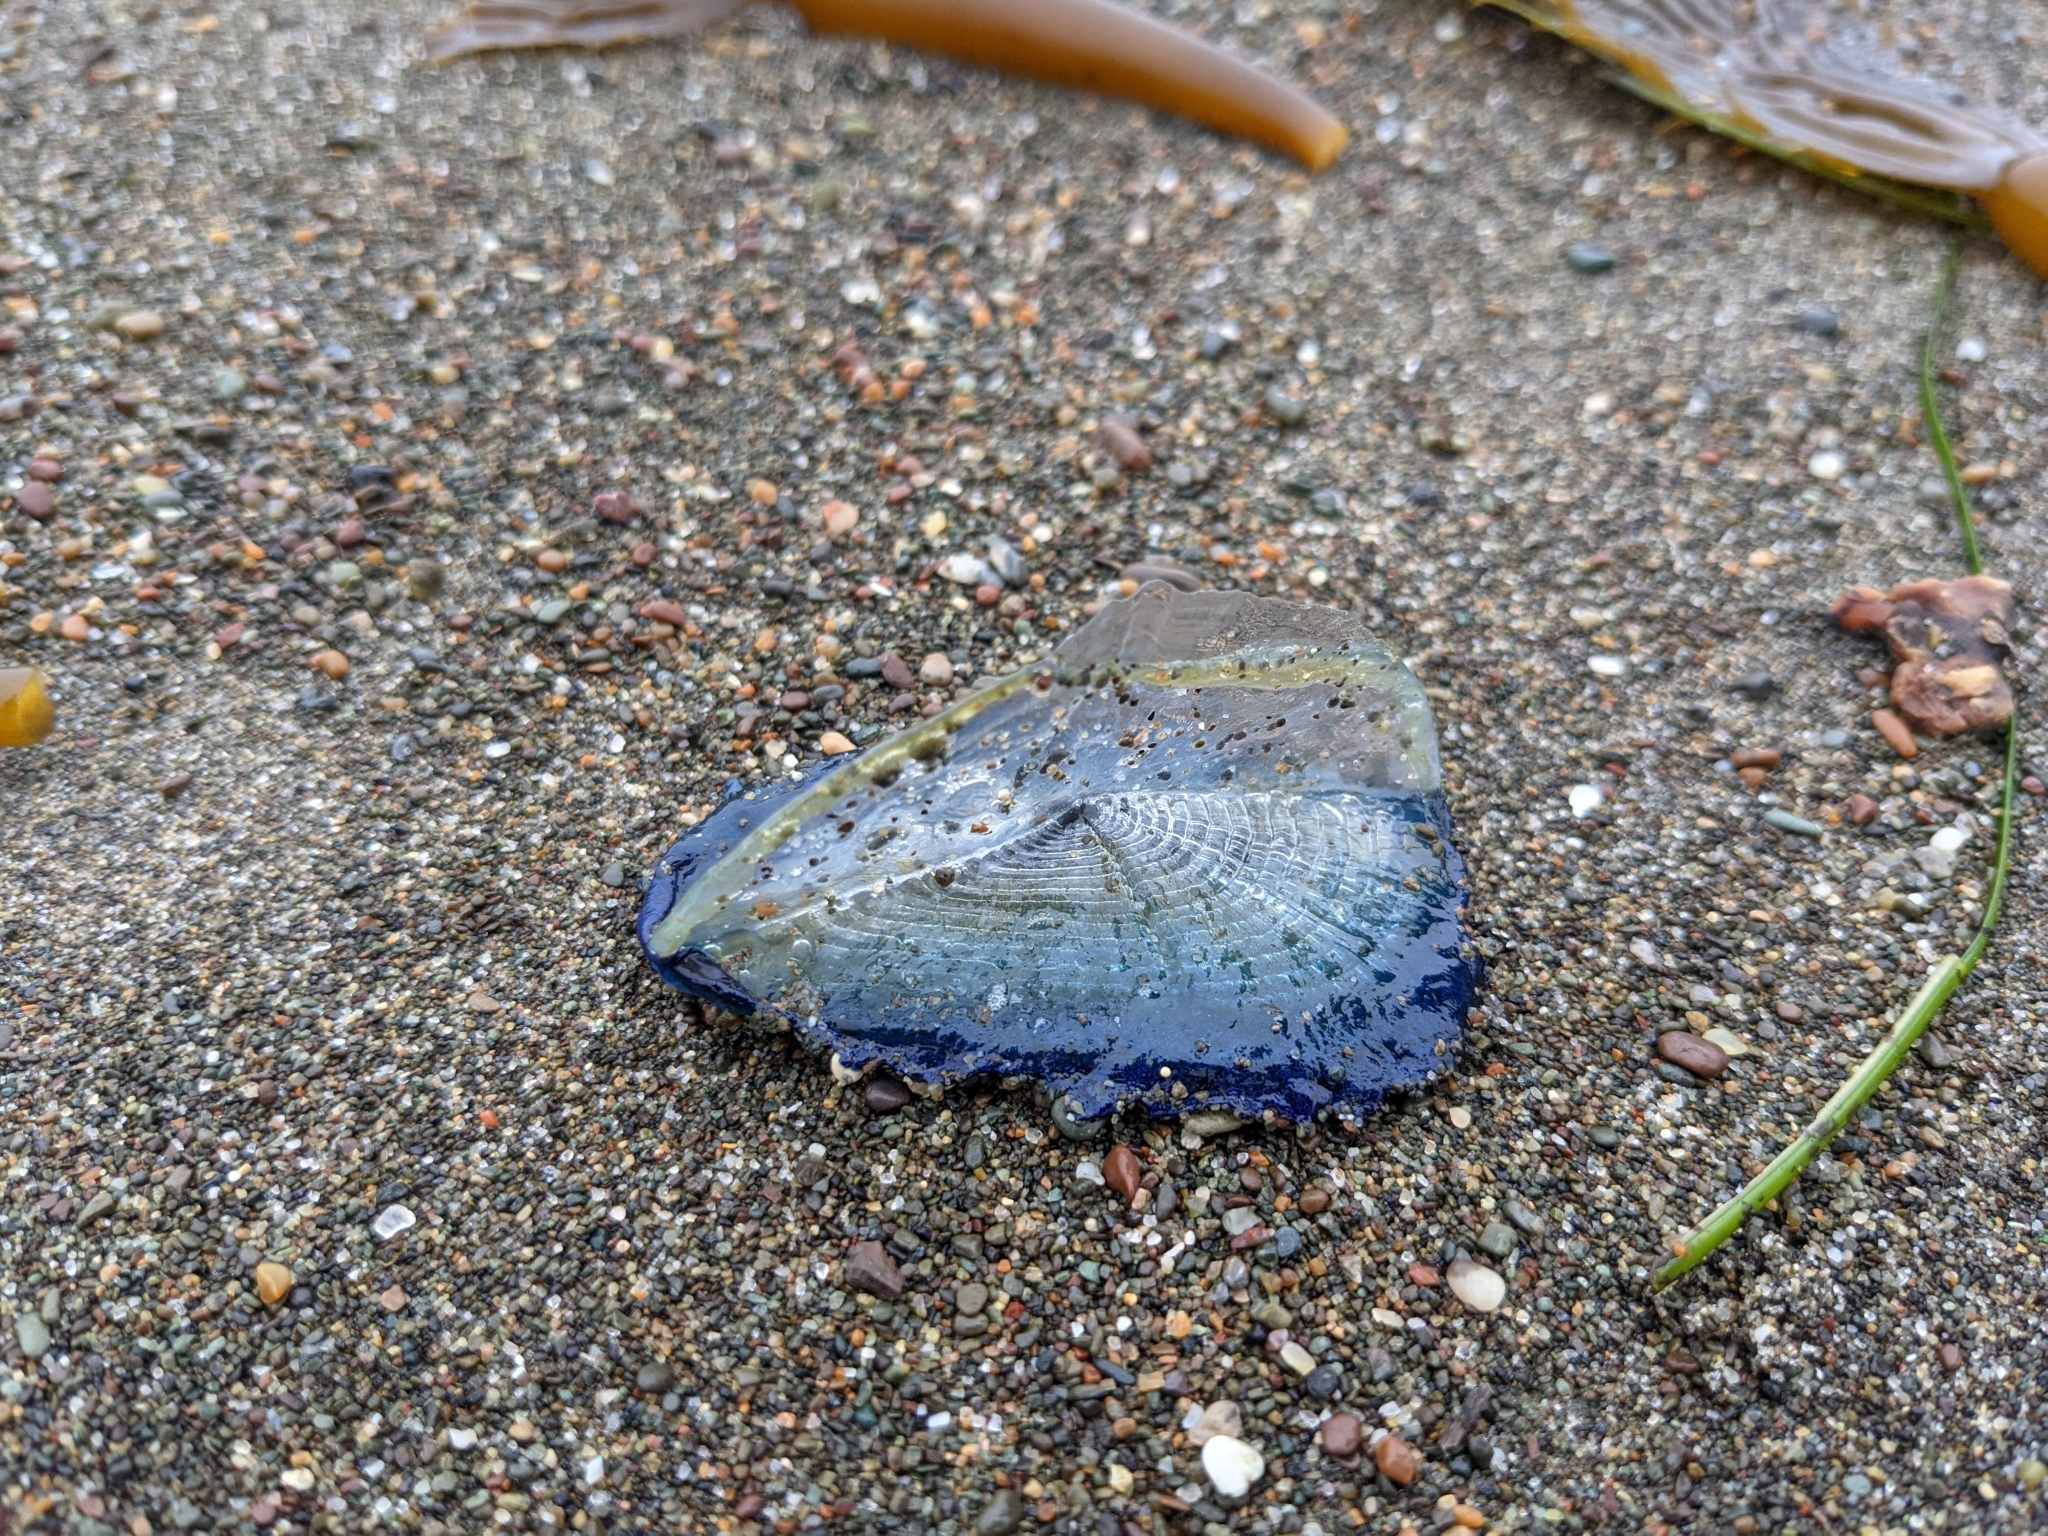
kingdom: Animalia
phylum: Cnidaria
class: Hydrozoa
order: Anthoathecata
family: Porpitidae
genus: Velella
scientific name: Velella velella
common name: By-the-wind-sailor
